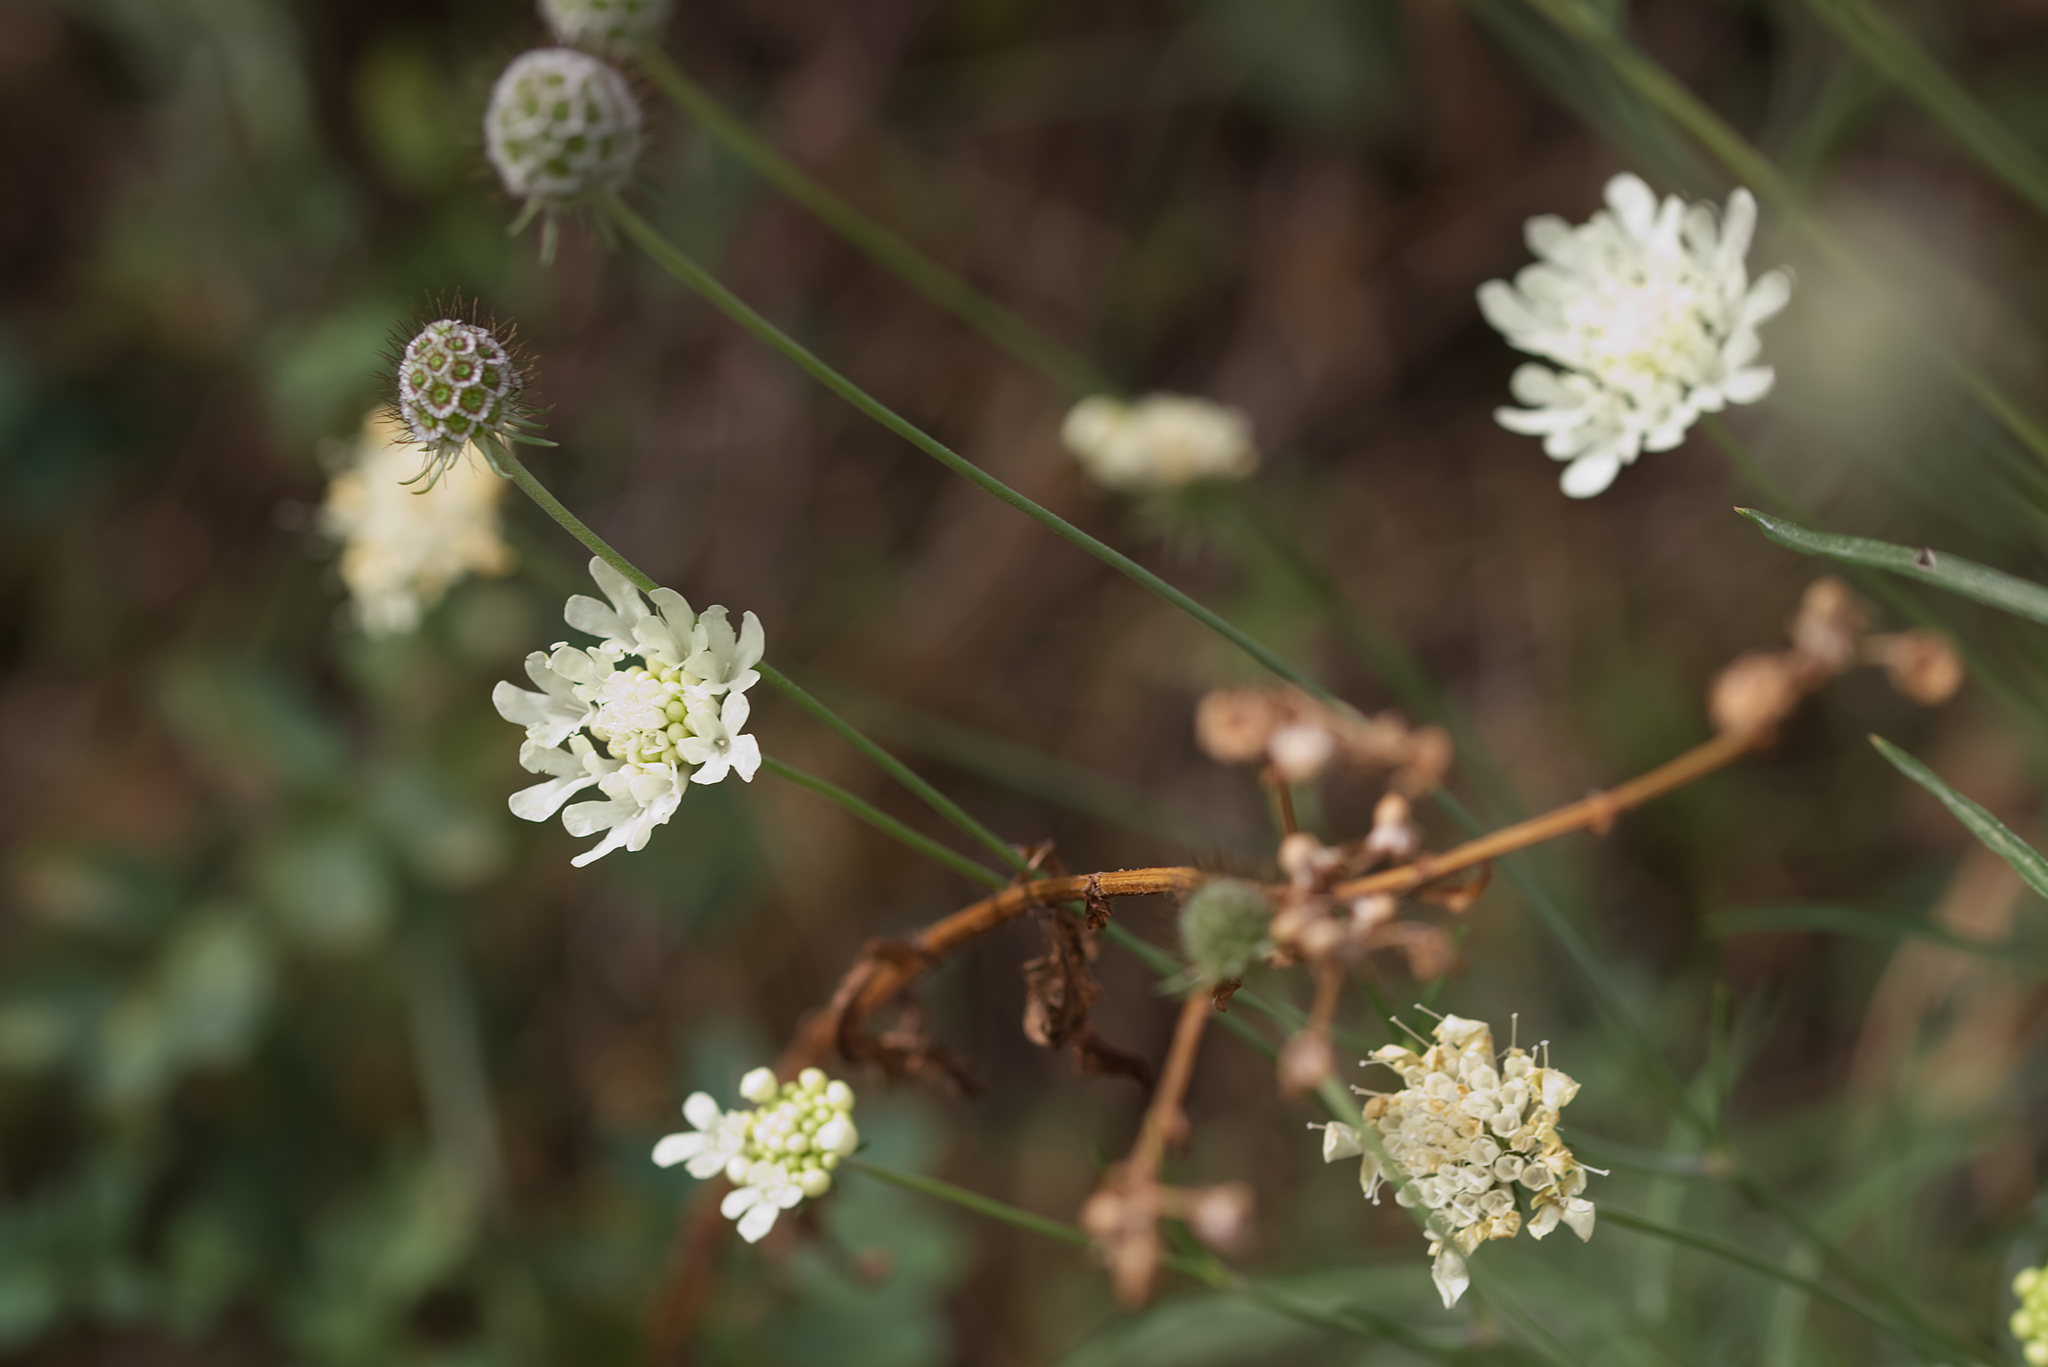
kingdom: Plantae
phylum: Tracheophyta
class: Magnoliopsida
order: Dipsacales
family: Caprifoliaceae
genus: Scabiosa
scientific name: Scabiosa ochroleuca
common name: Cream pincushions
